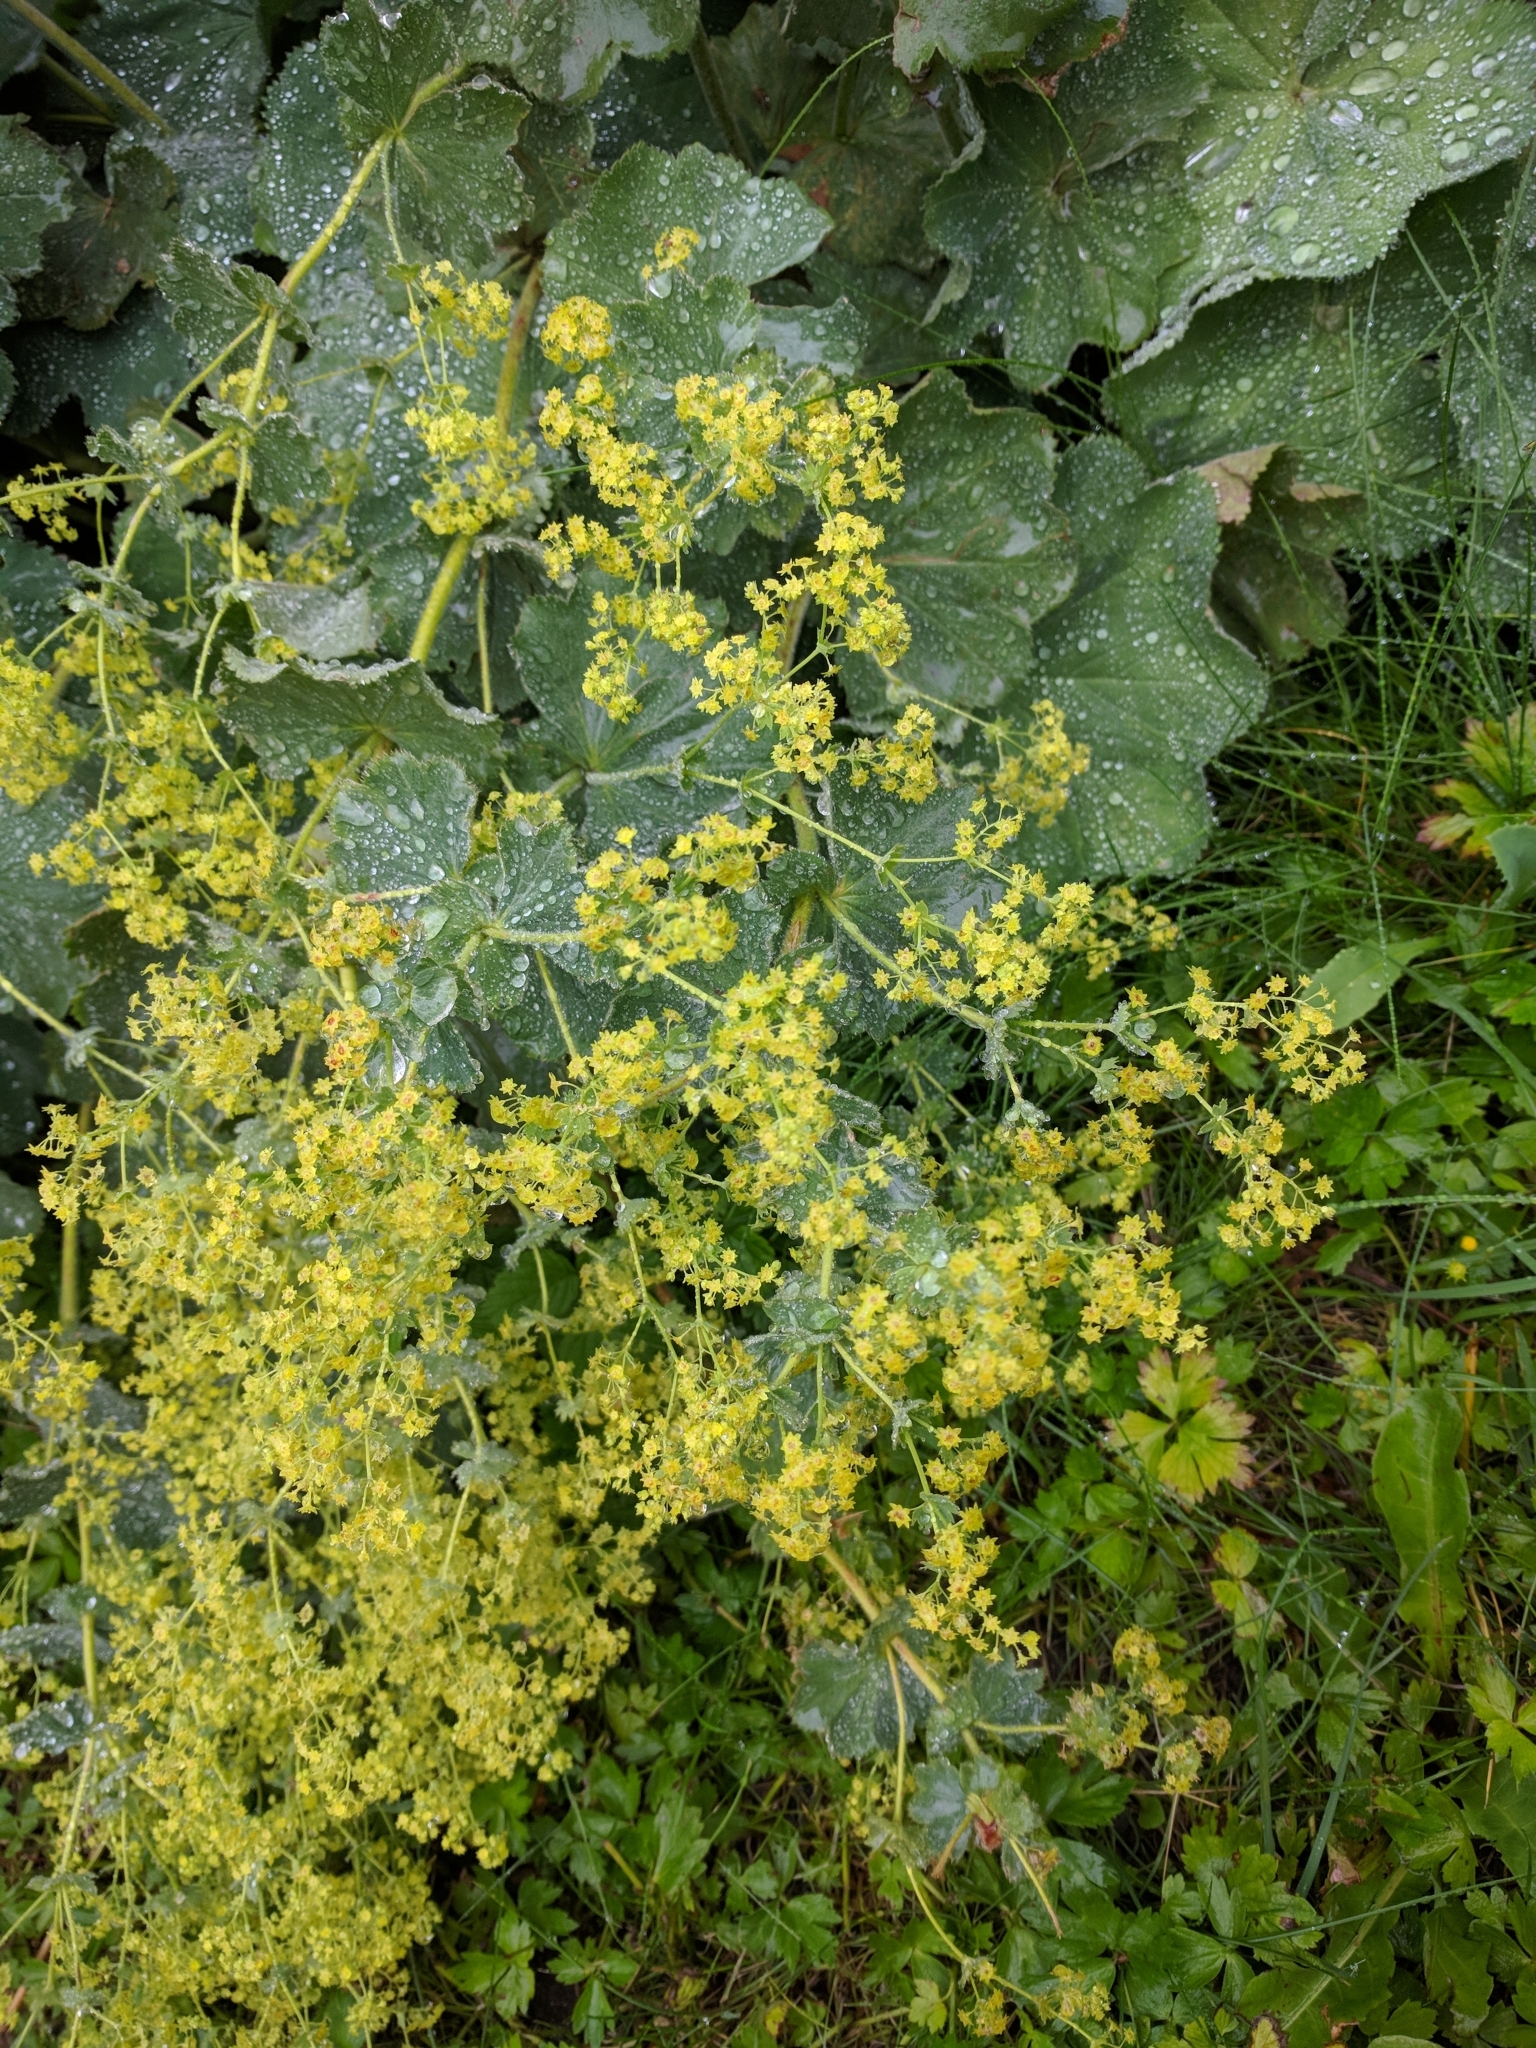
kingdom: Plantae
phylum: Tracheophyta
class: Magnoliopsida
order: Rosales
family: Rosaceae
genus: Alchemilla
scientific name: Alchemilla mollis
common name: Lady's-mantle
